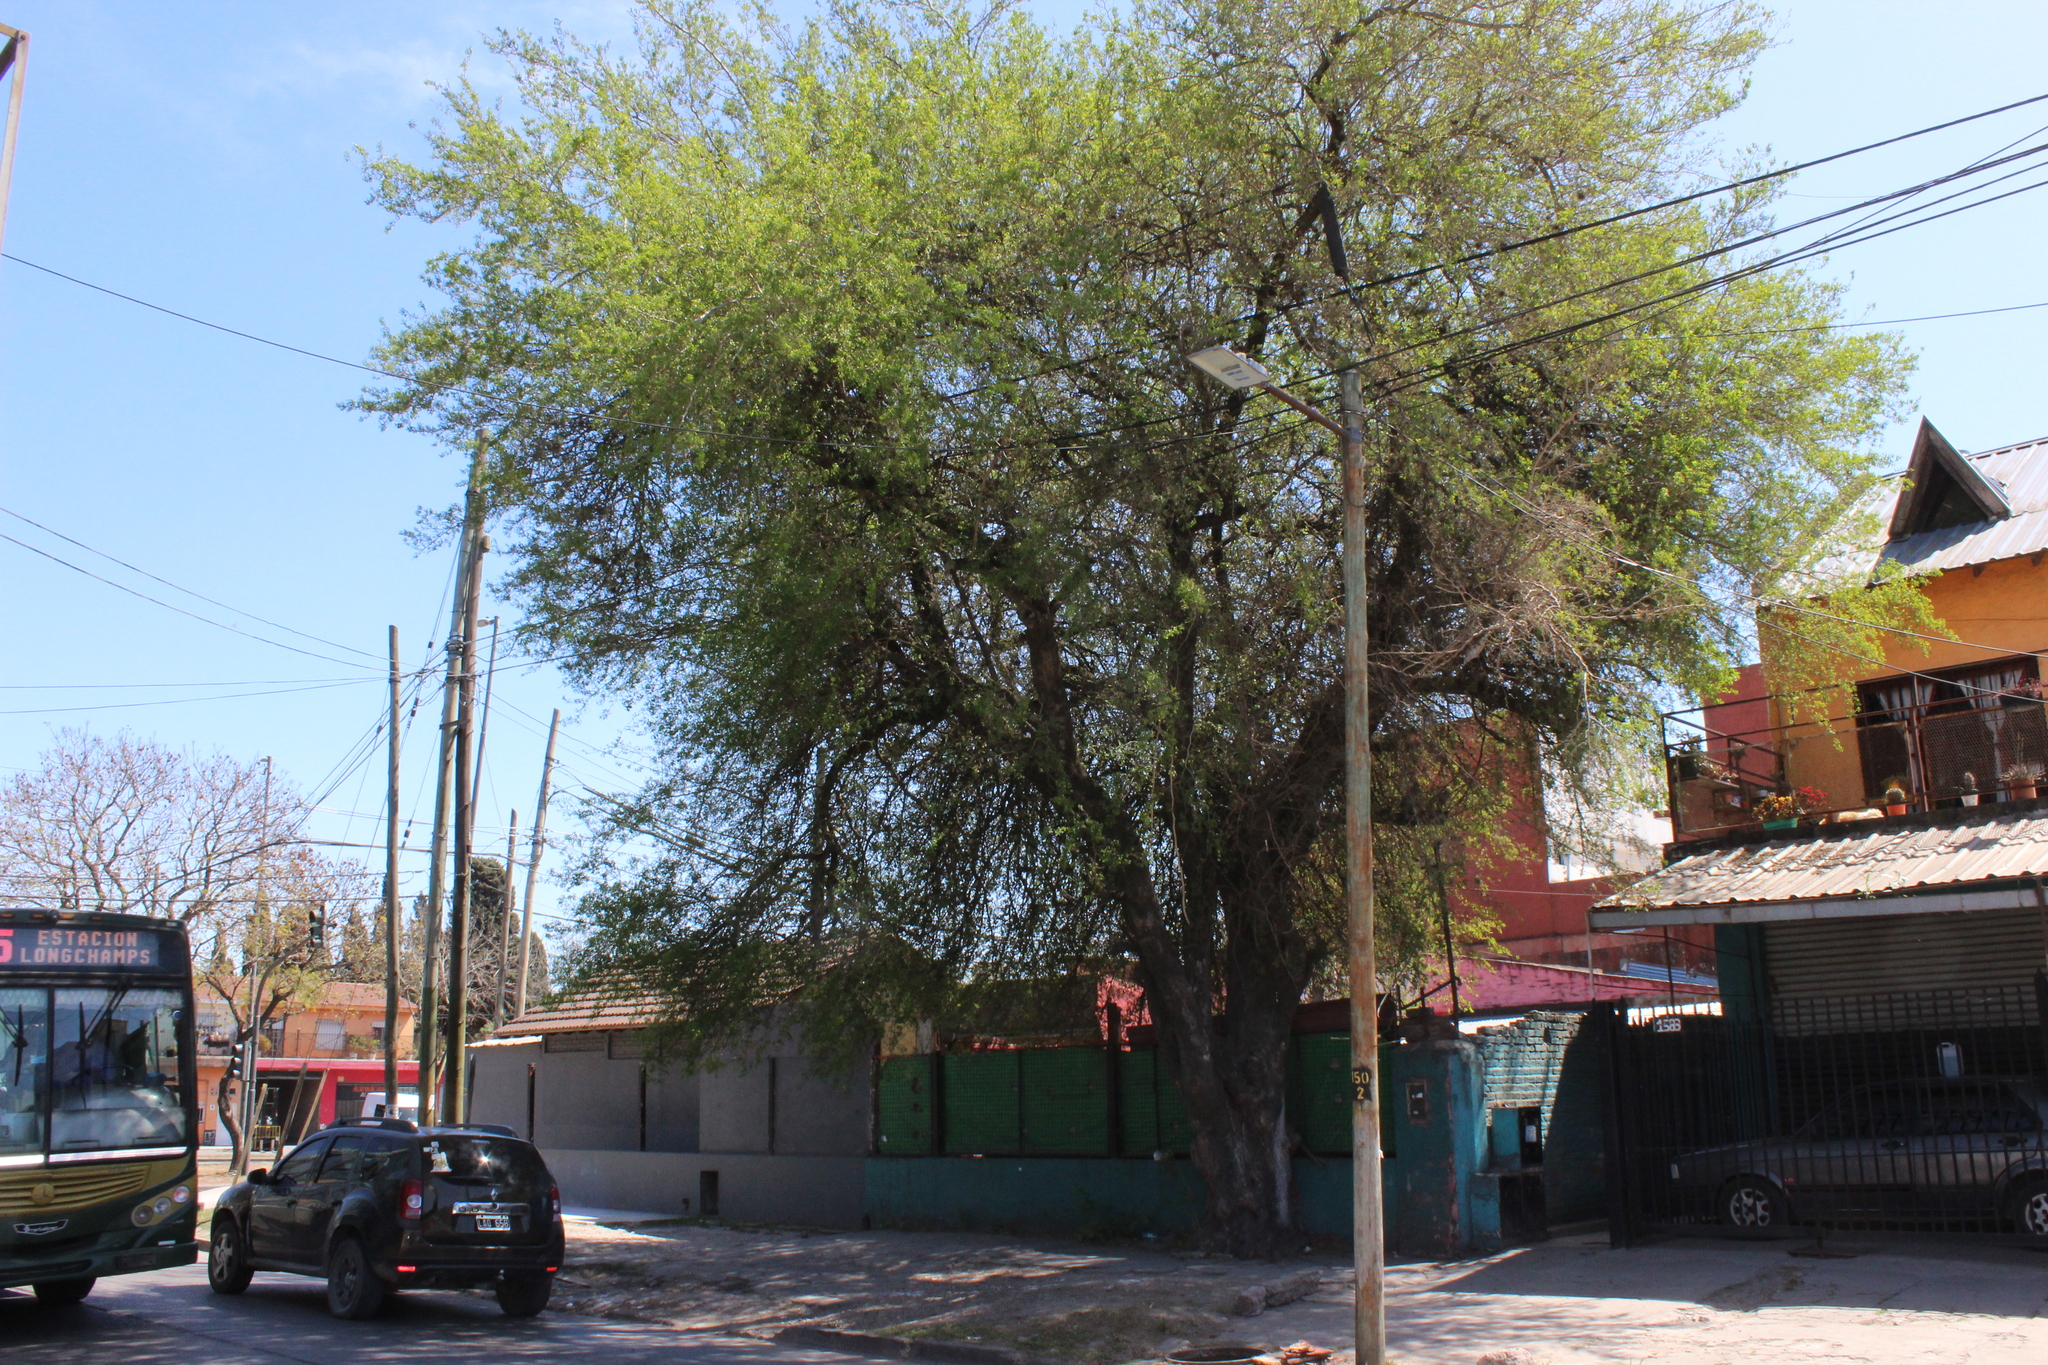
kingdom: Plantae
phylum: Tracheophyta
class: Magnoliopsida
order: Rosales
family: Cannabaceae
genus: Celtis
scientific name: Celtis tala
